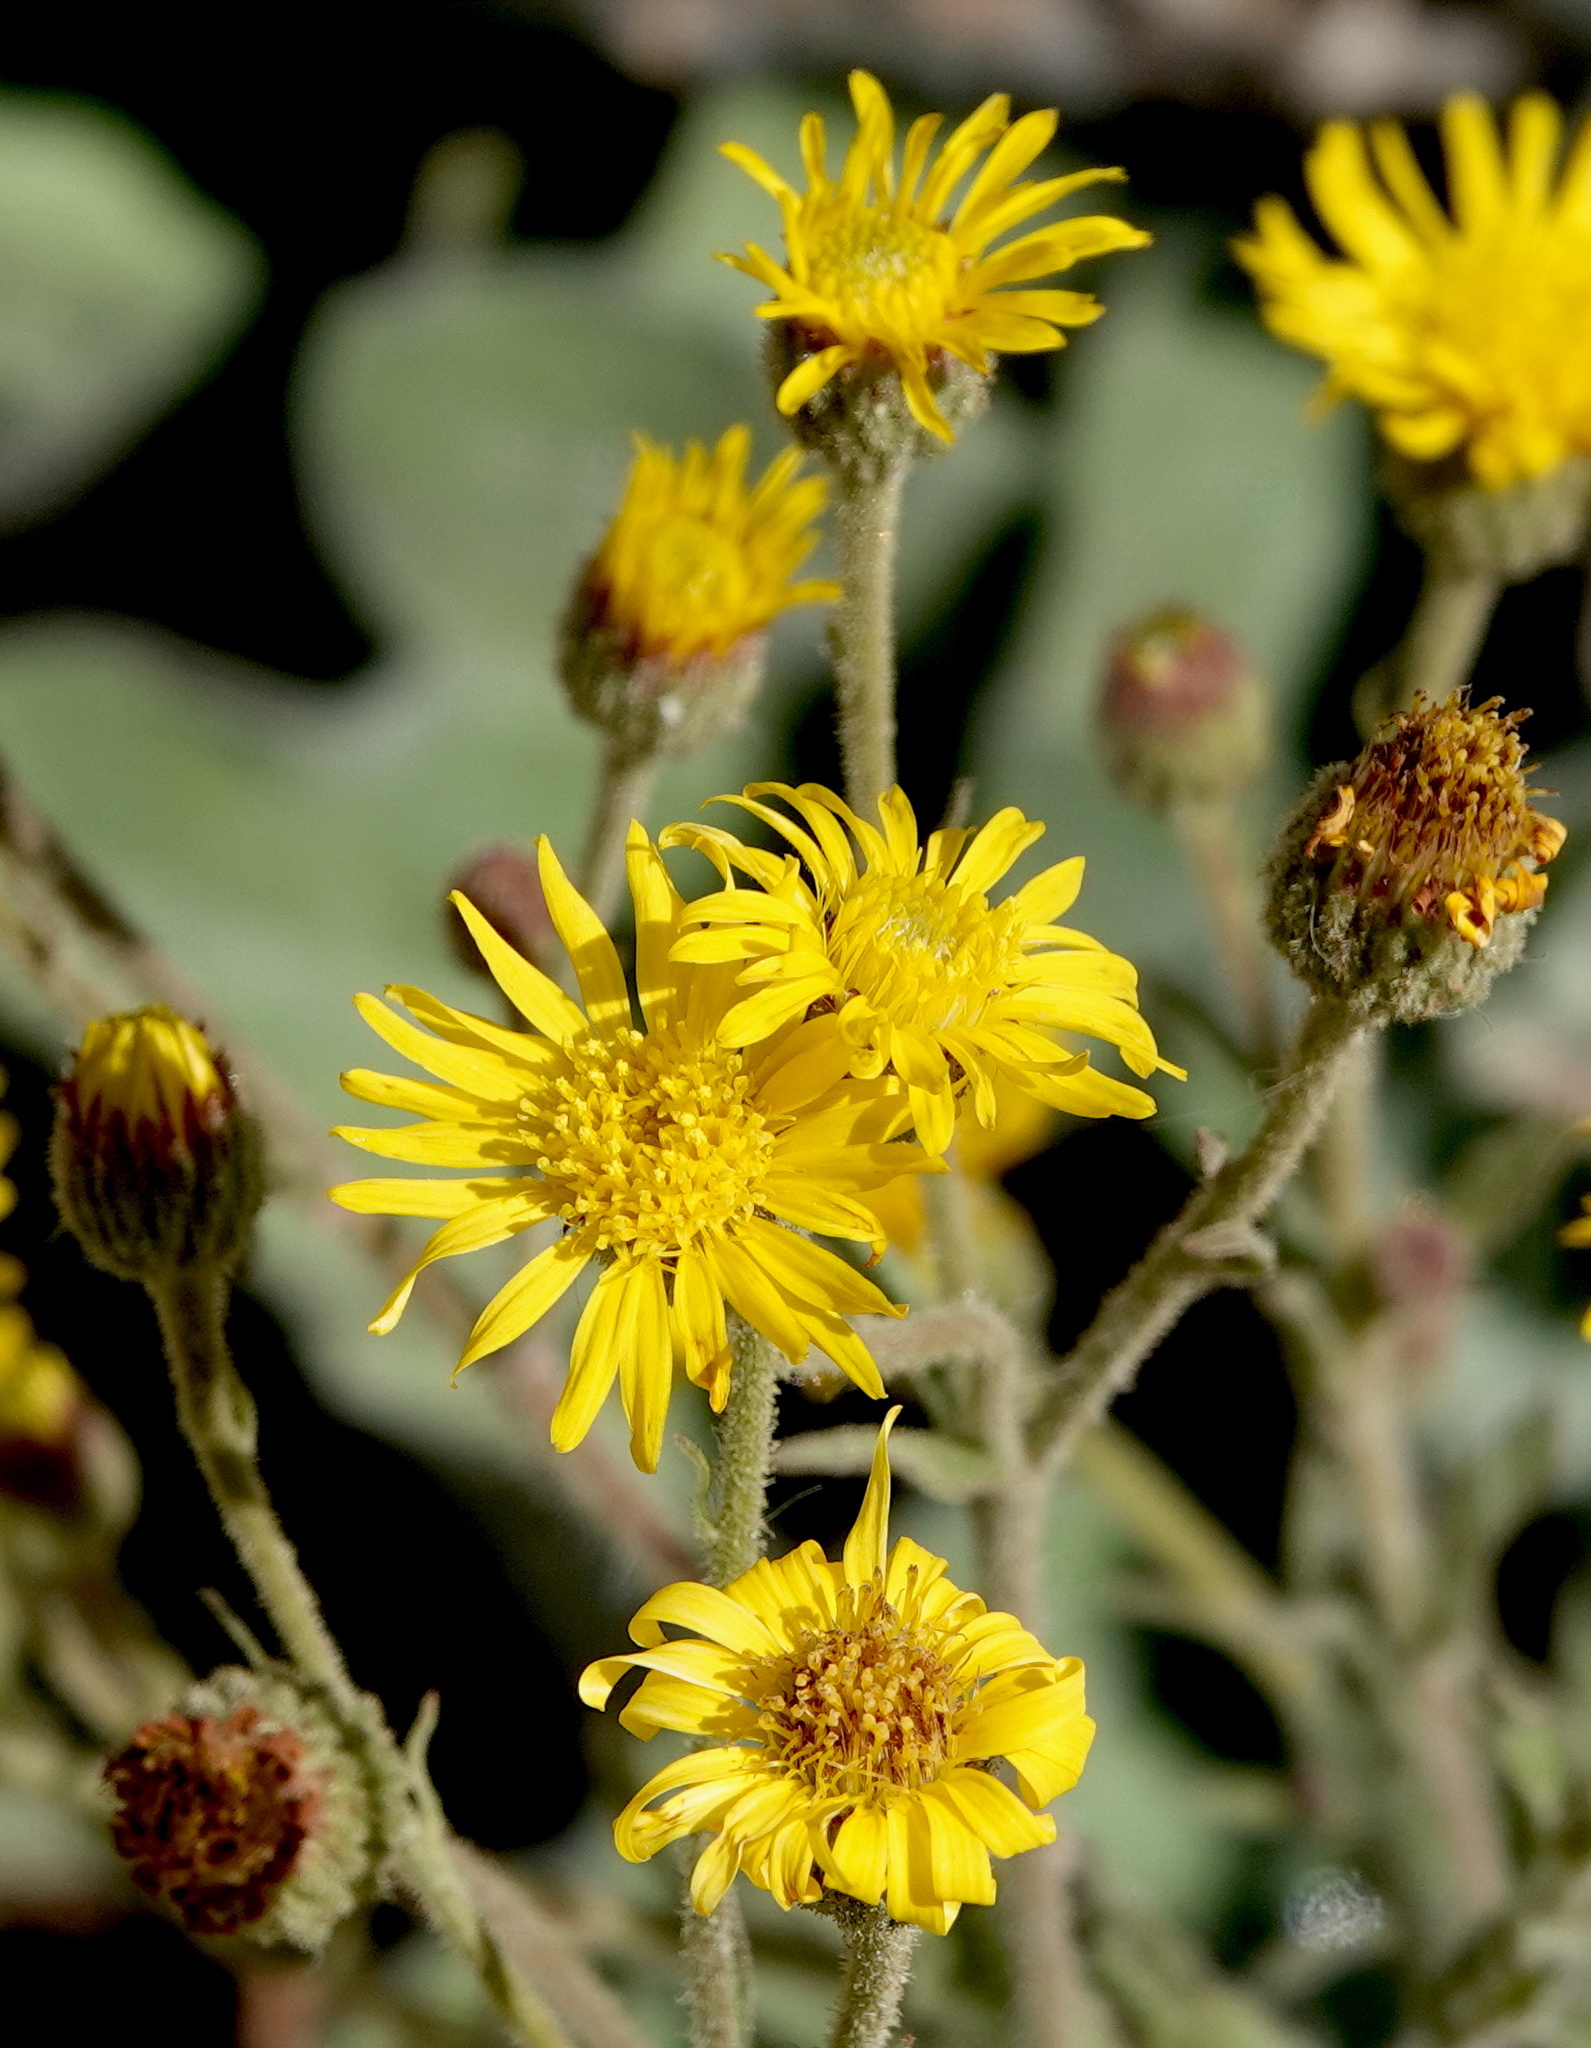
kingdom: Plantae
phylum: Tracheophyta
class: Magnoliopsida
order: Asterales
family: Asteraceae
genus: Heterotheca
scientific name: Heterotheca grandiflora
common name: Telegraphweed
